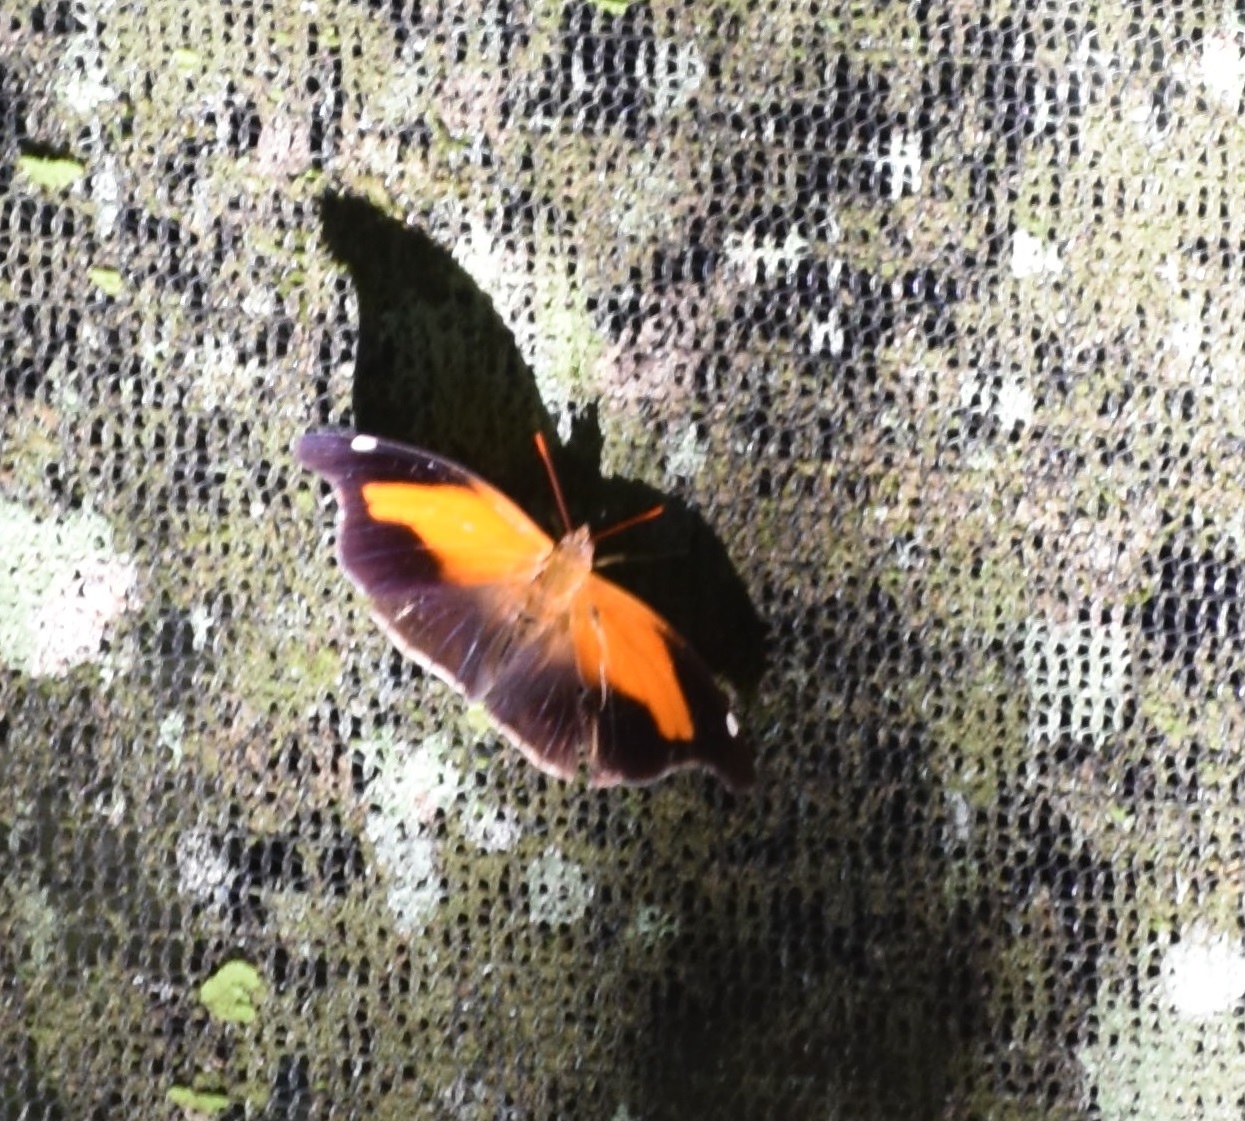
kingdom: Animalia
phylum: Arthropoda
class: Insecta
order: Lepidoptera
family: Nymphalidae
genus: Historis
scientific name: Historis odius
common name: Orion cecropian
